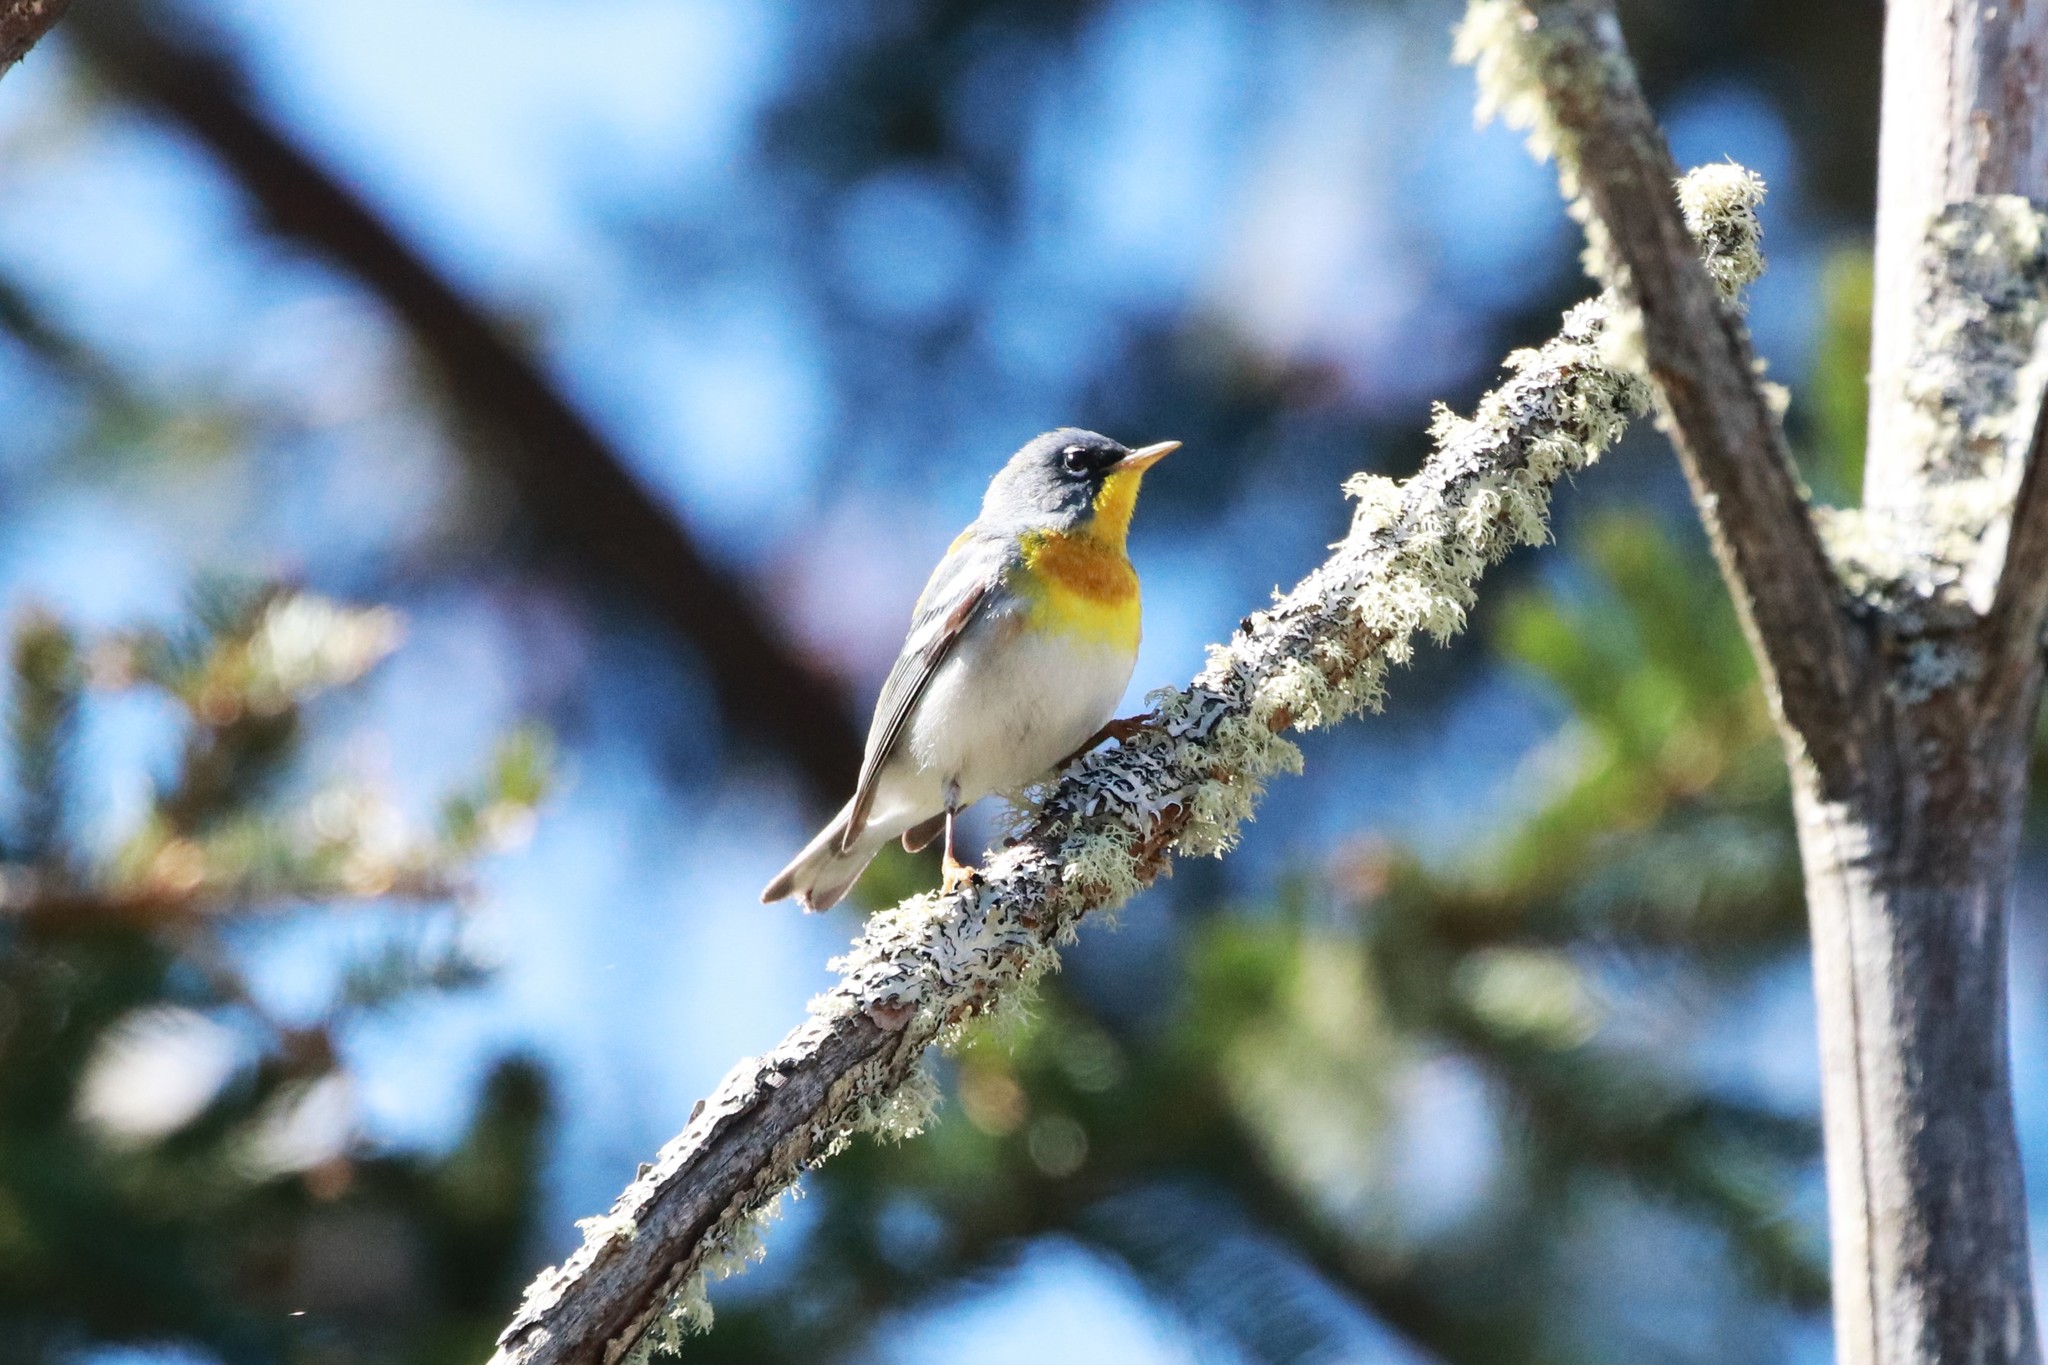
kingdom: Animalia
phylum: Chordata
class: Aves
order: Passeriformes
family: Parulidae
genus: Setophaga
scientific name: Setophaga americana
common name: Northern parula
